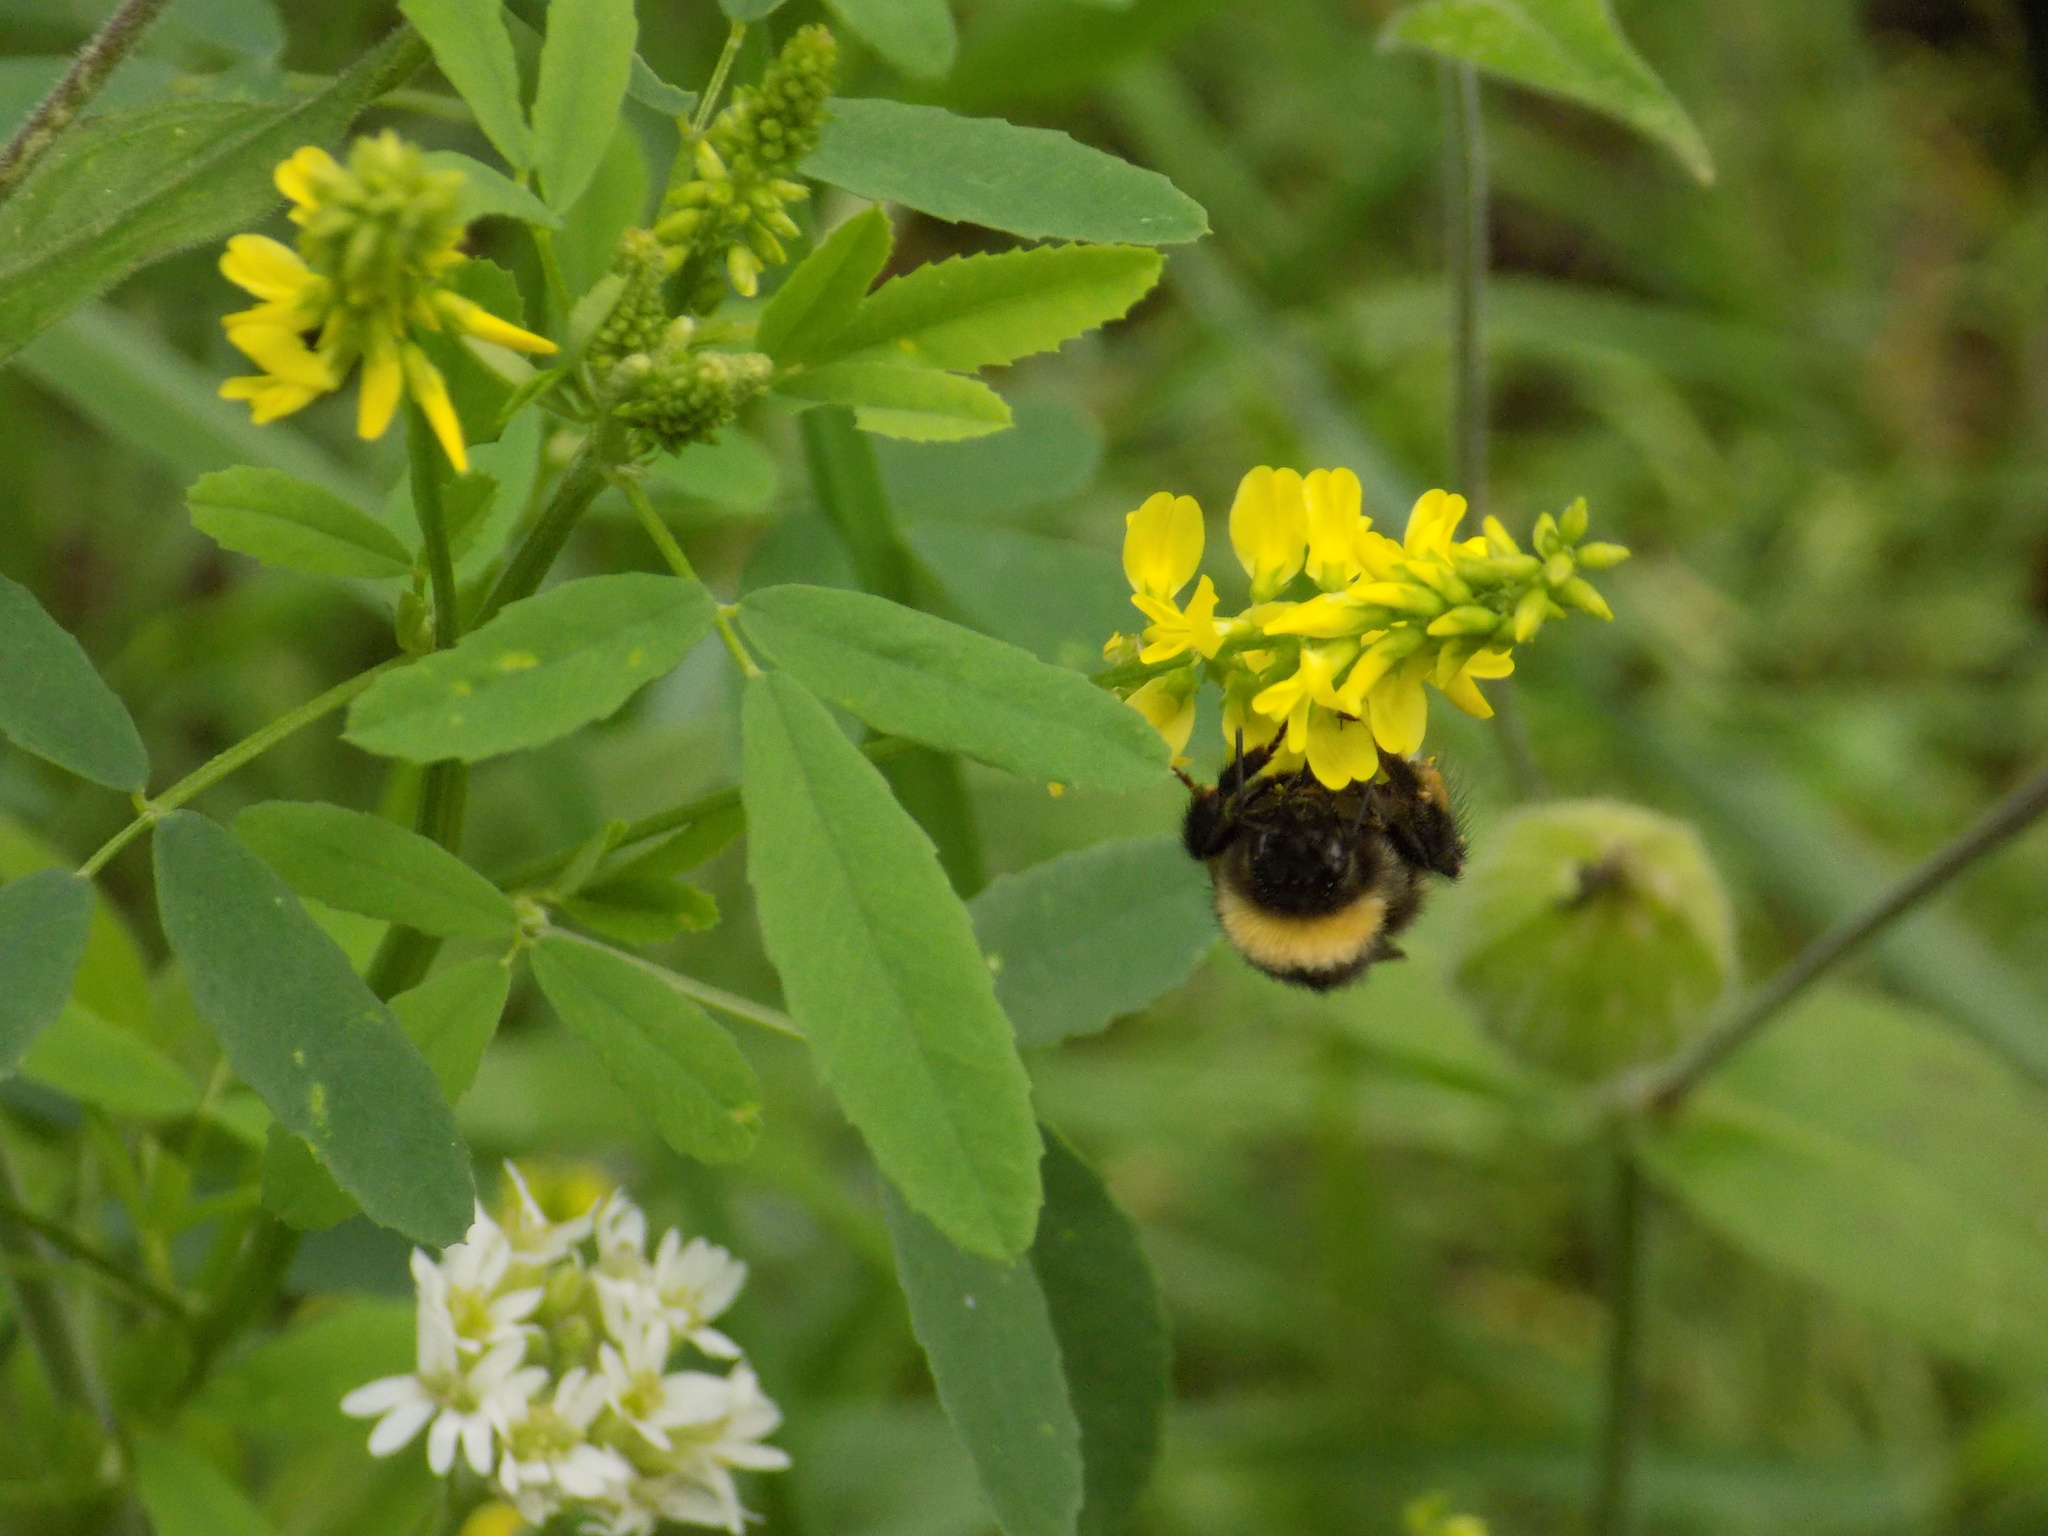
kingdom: Animalia
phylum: Arthropoda
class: Insecta
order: Hymenoptera
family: Apidae
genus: Bombus
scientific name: Bombus pascuorum
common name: Common carder bee
